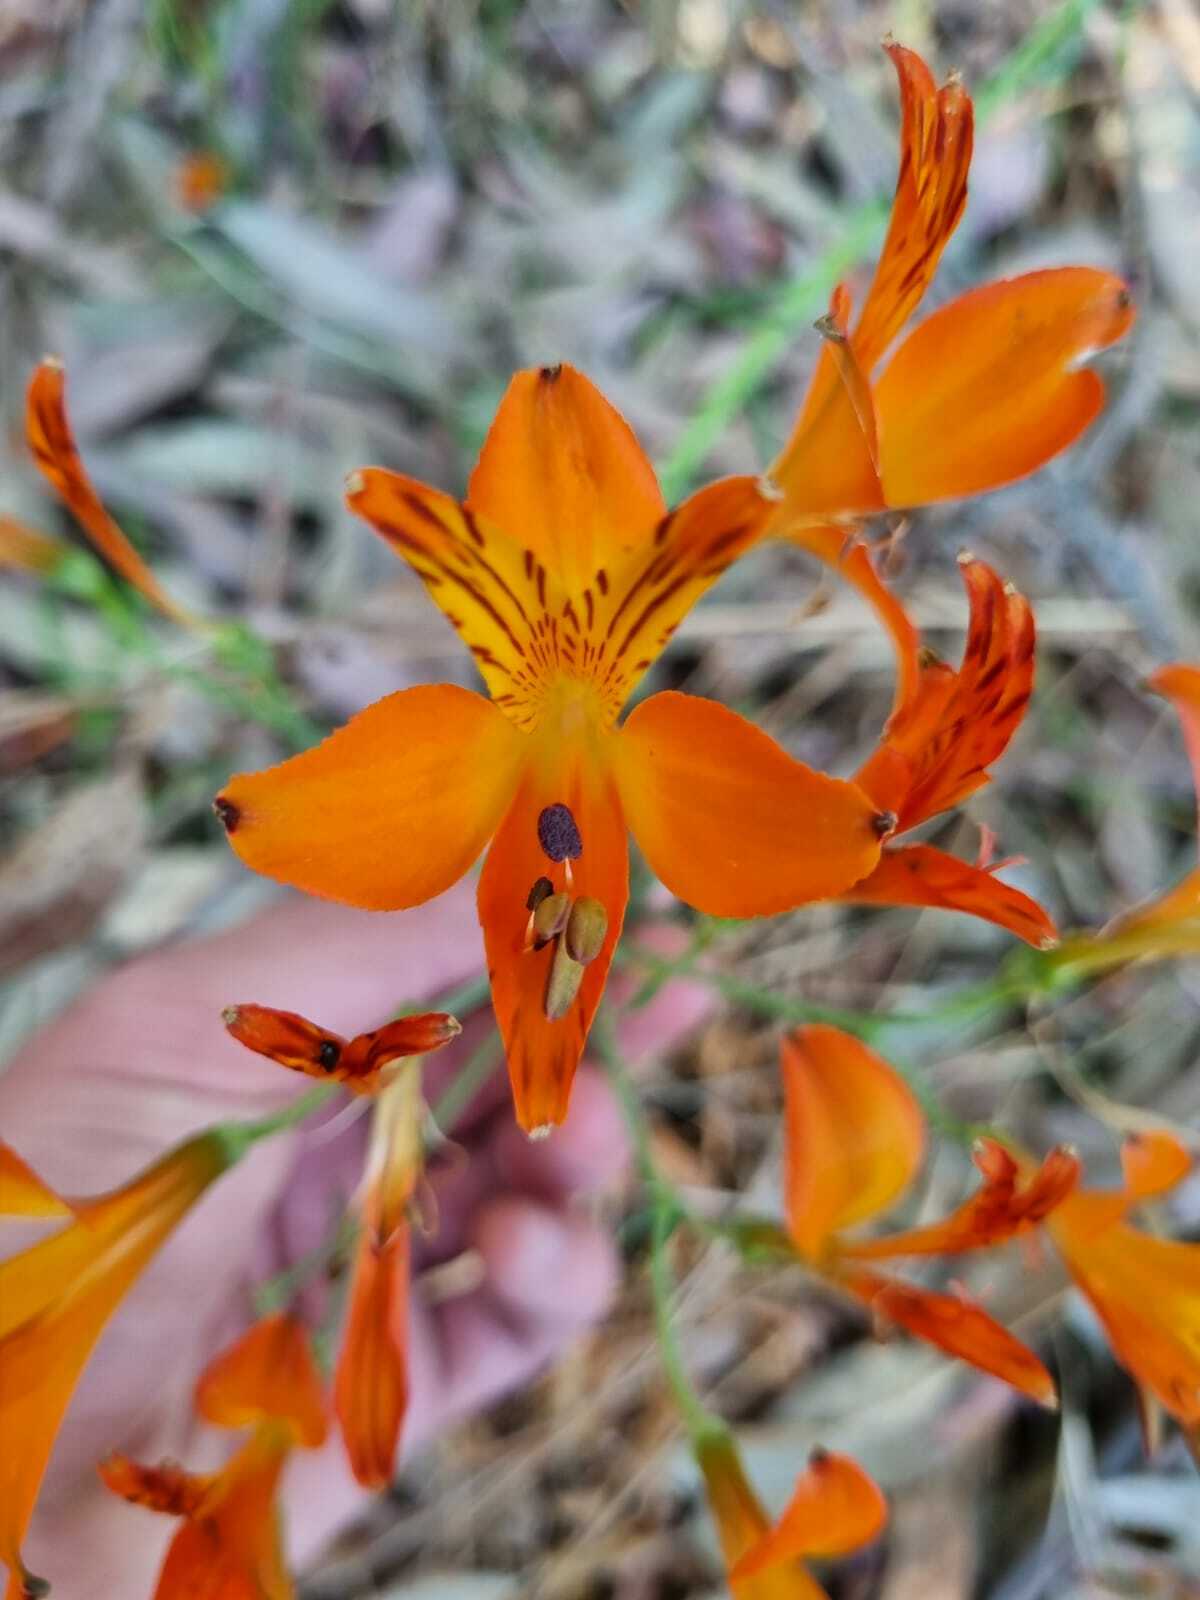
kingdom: Plantae
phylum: Tracheophyta
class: Liliopsida
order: Liliales
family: Alstroemeriaceae
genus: Alstroemeria
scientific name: Alstroemeria ligtu
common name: St. martin's-flower
